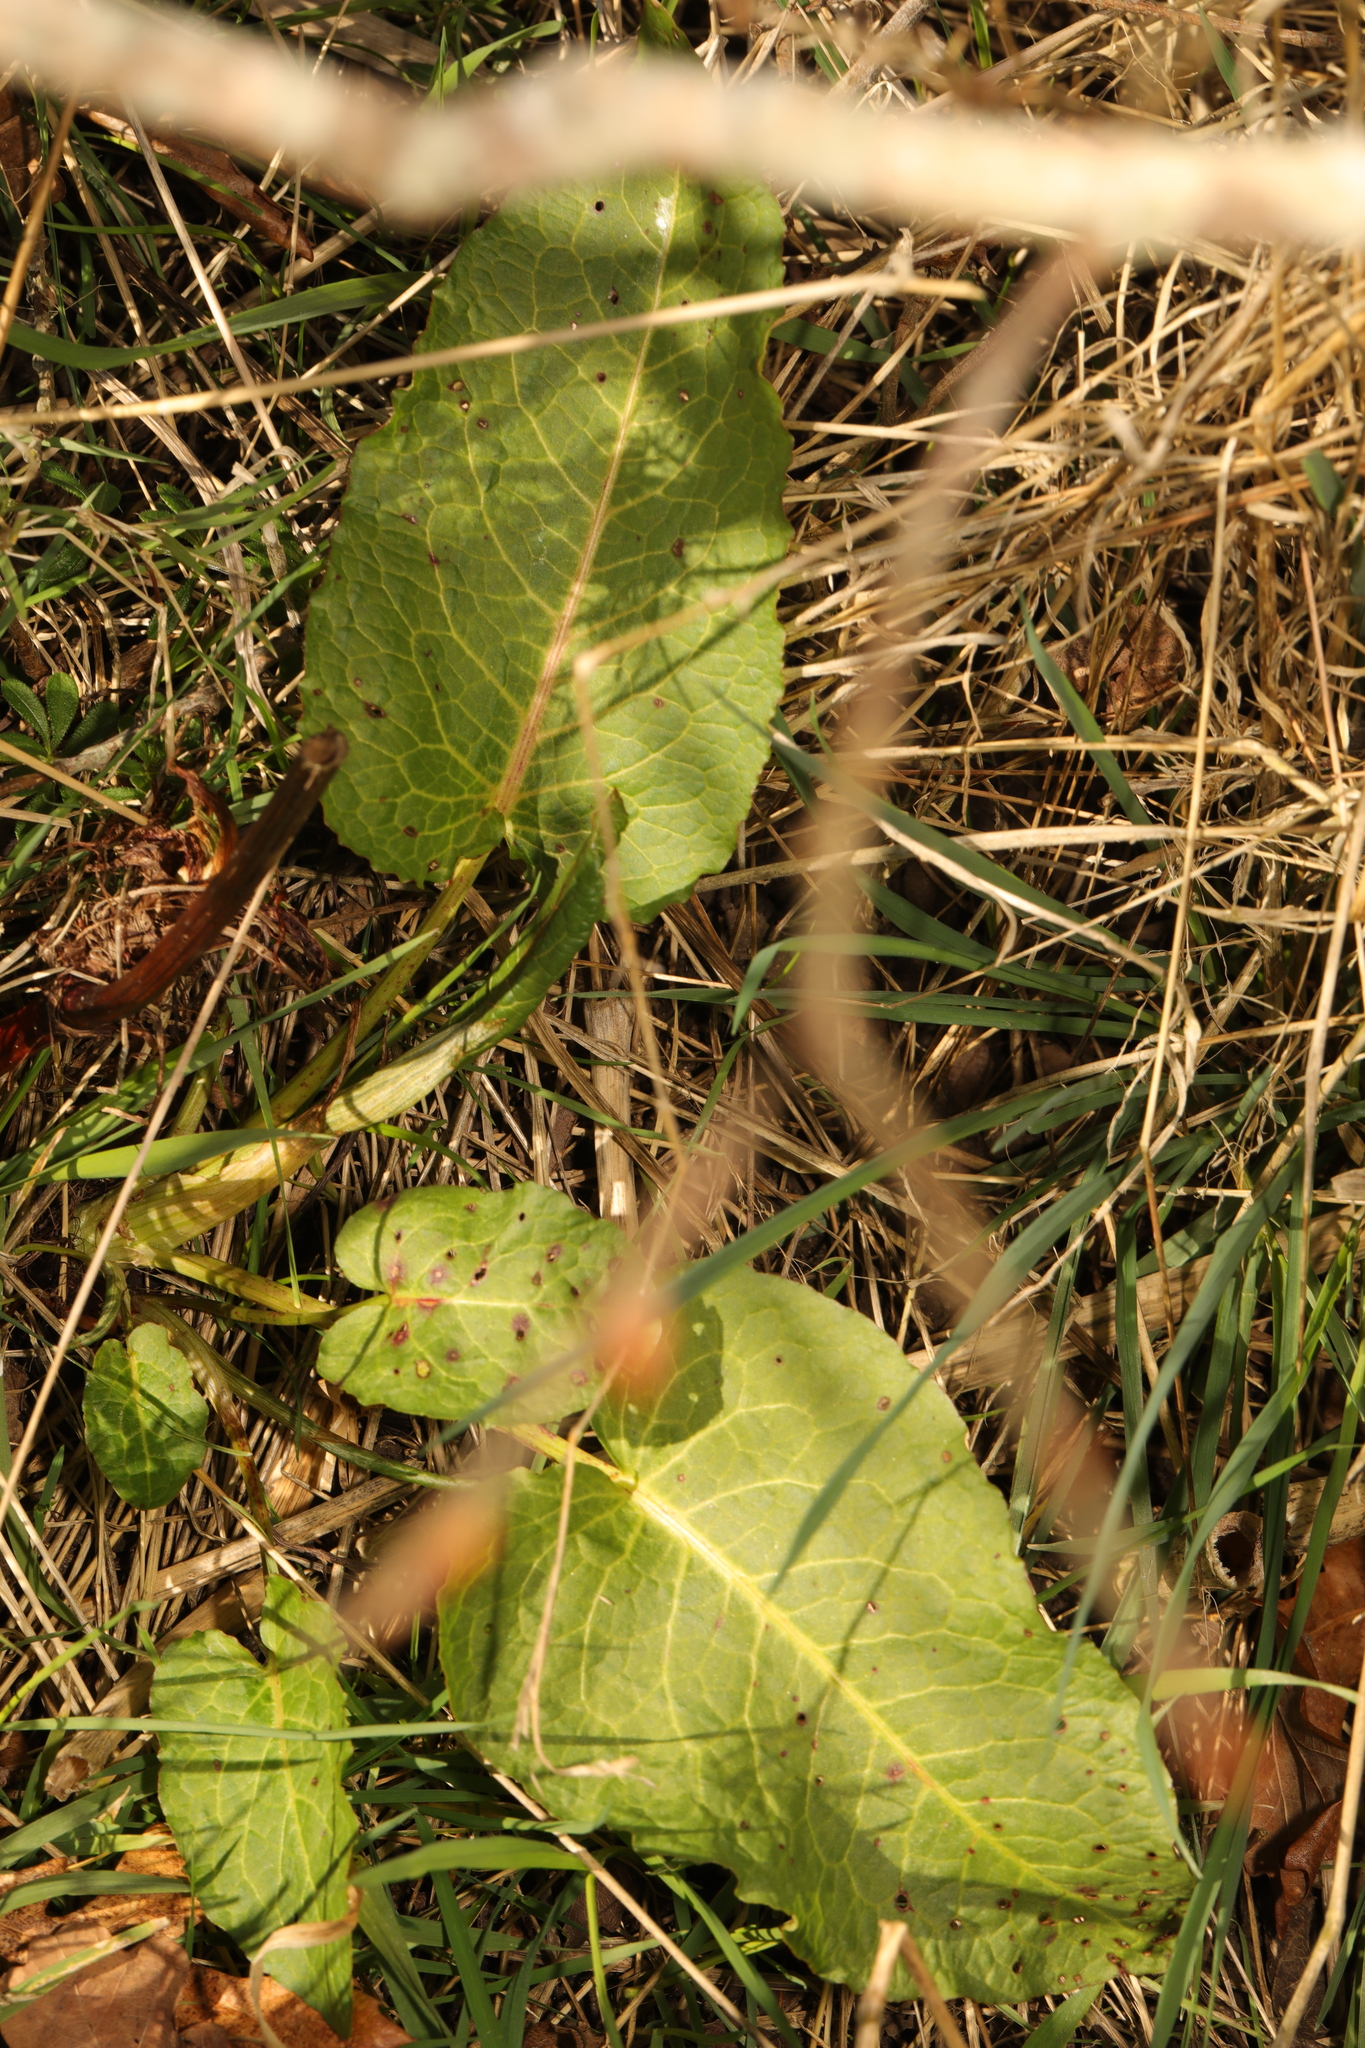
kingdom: Plantae
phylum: Tracheophyta
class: Magnoliopsida
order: Caryophyllales
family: Polygonaceae
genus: Rumex
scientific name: Rumex obtusifolius
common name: Bitter dock
